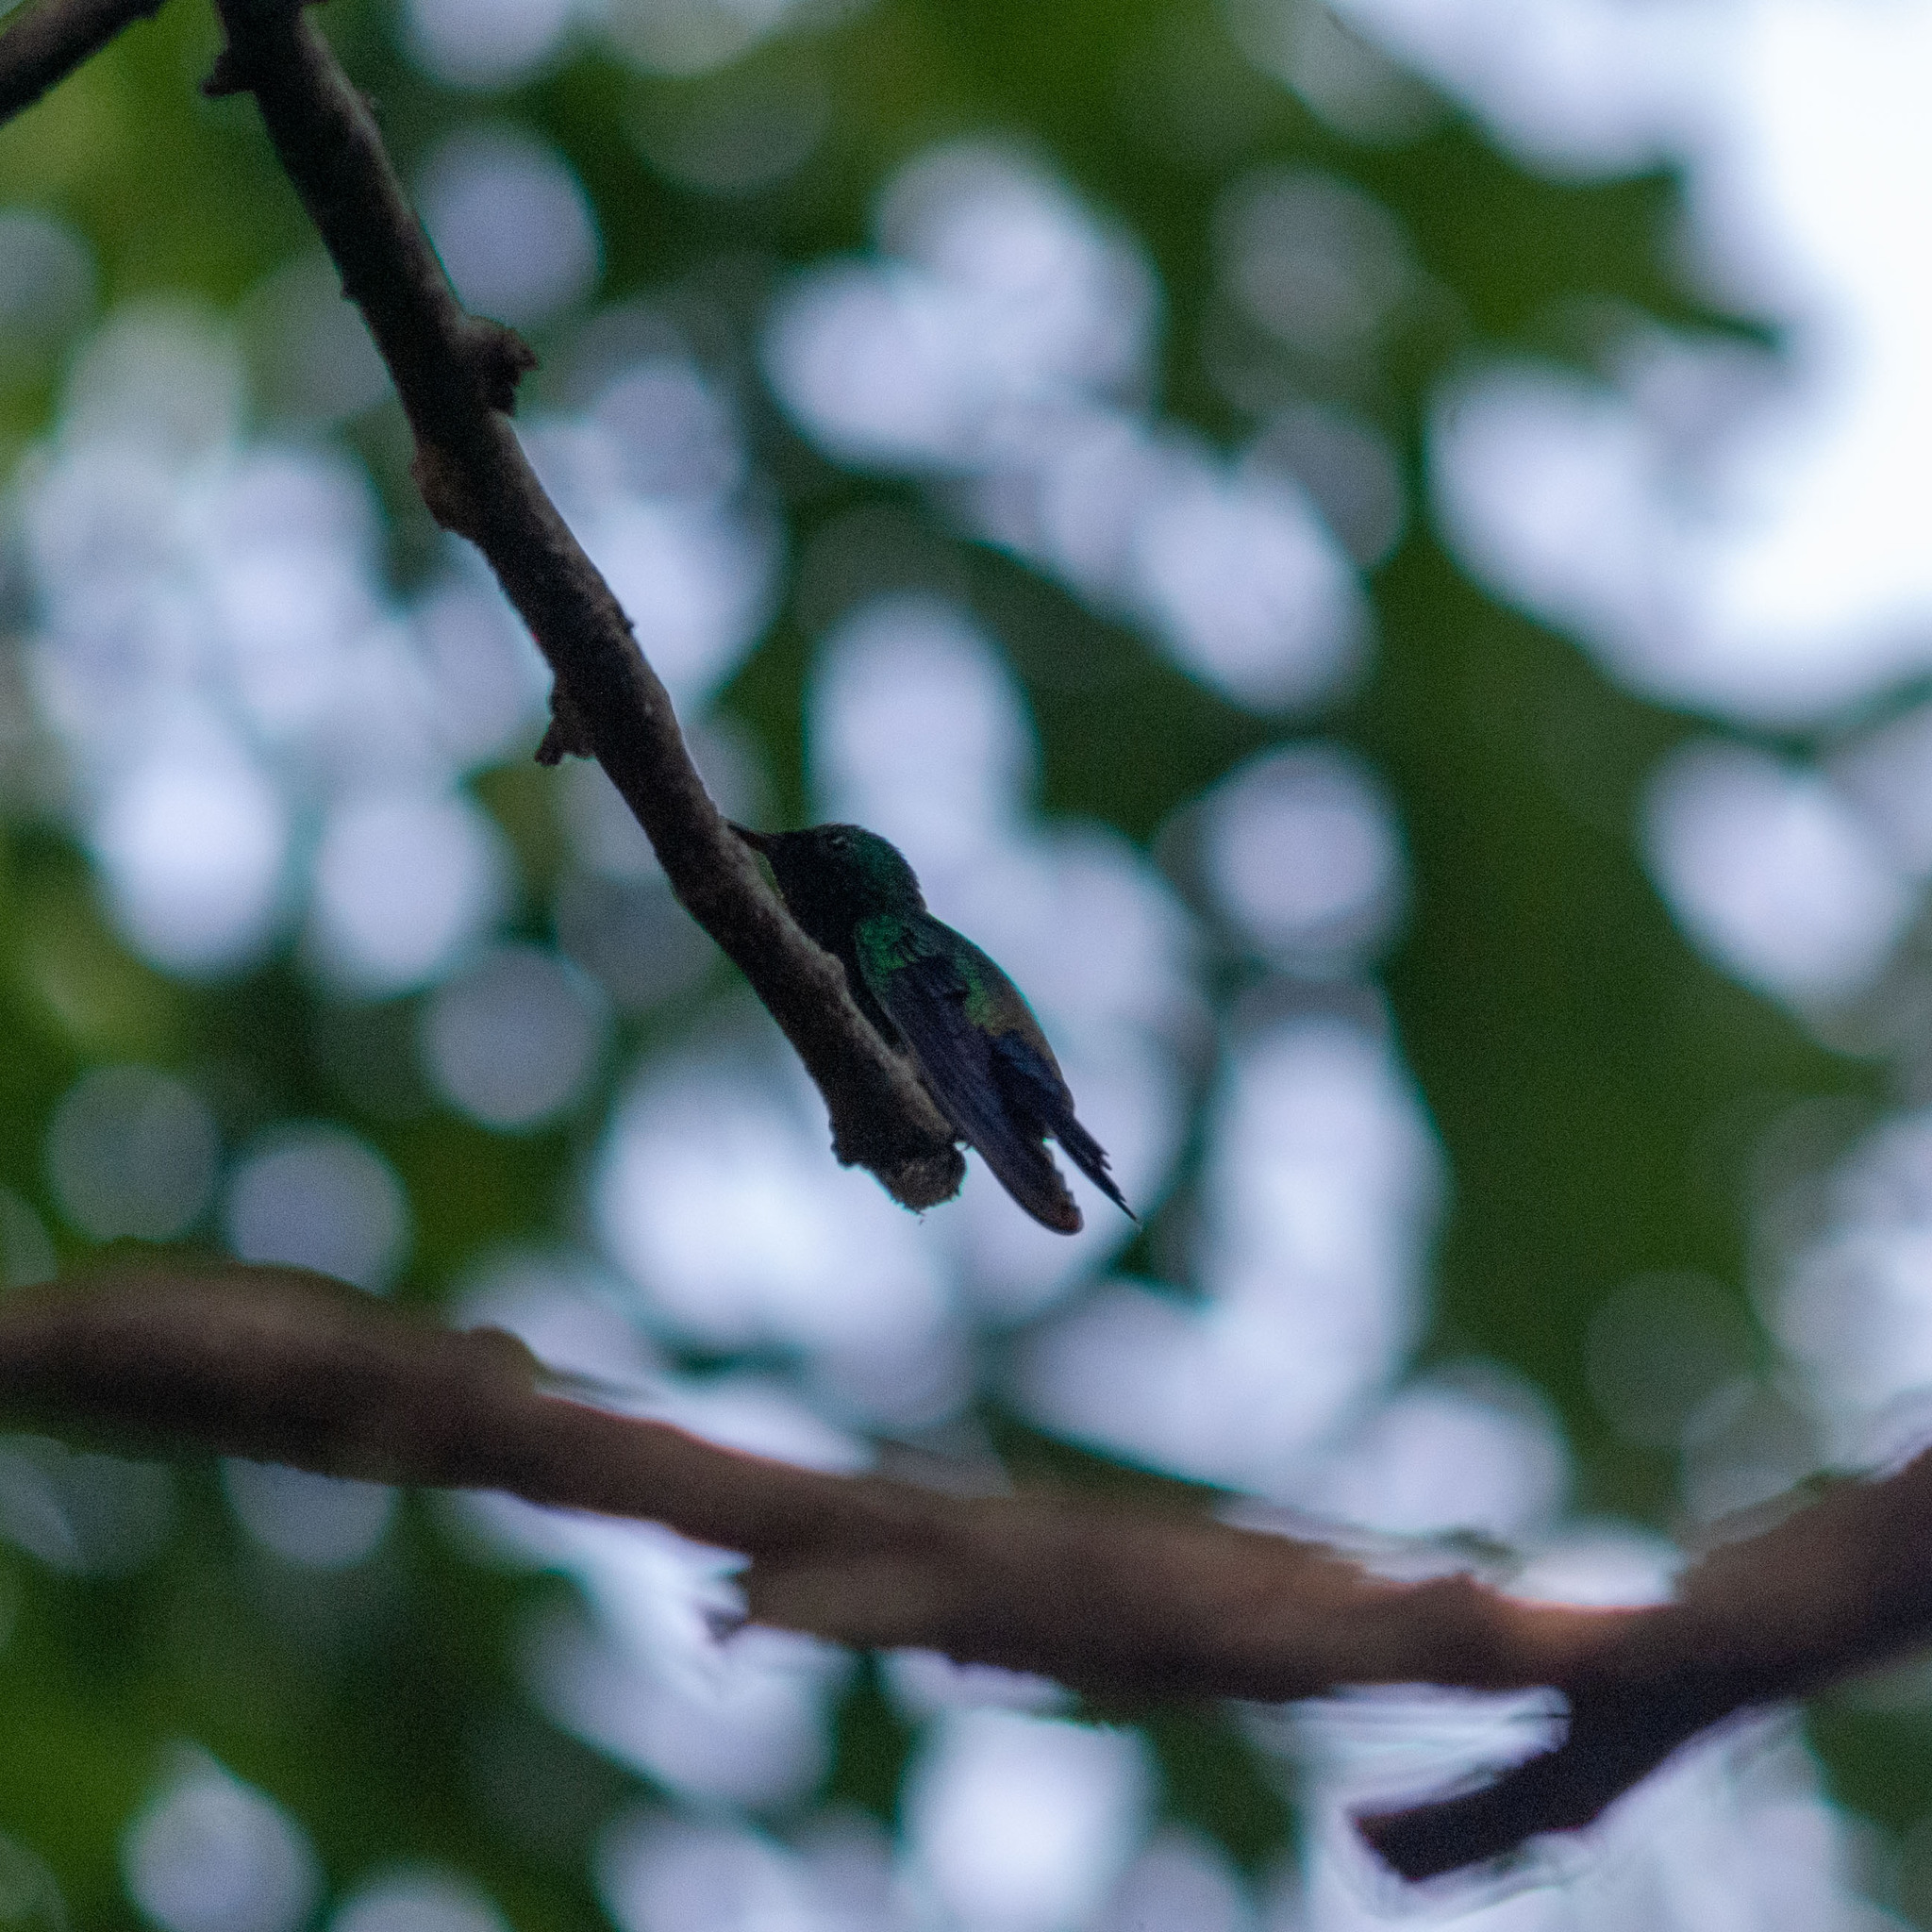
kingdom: Animalia
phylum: Chordata
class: Aves
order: Apodiformes
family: Trochilidae
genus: Saucerottia
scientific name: Saucerottia saucerottei
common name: Steely-vented hummingbird
